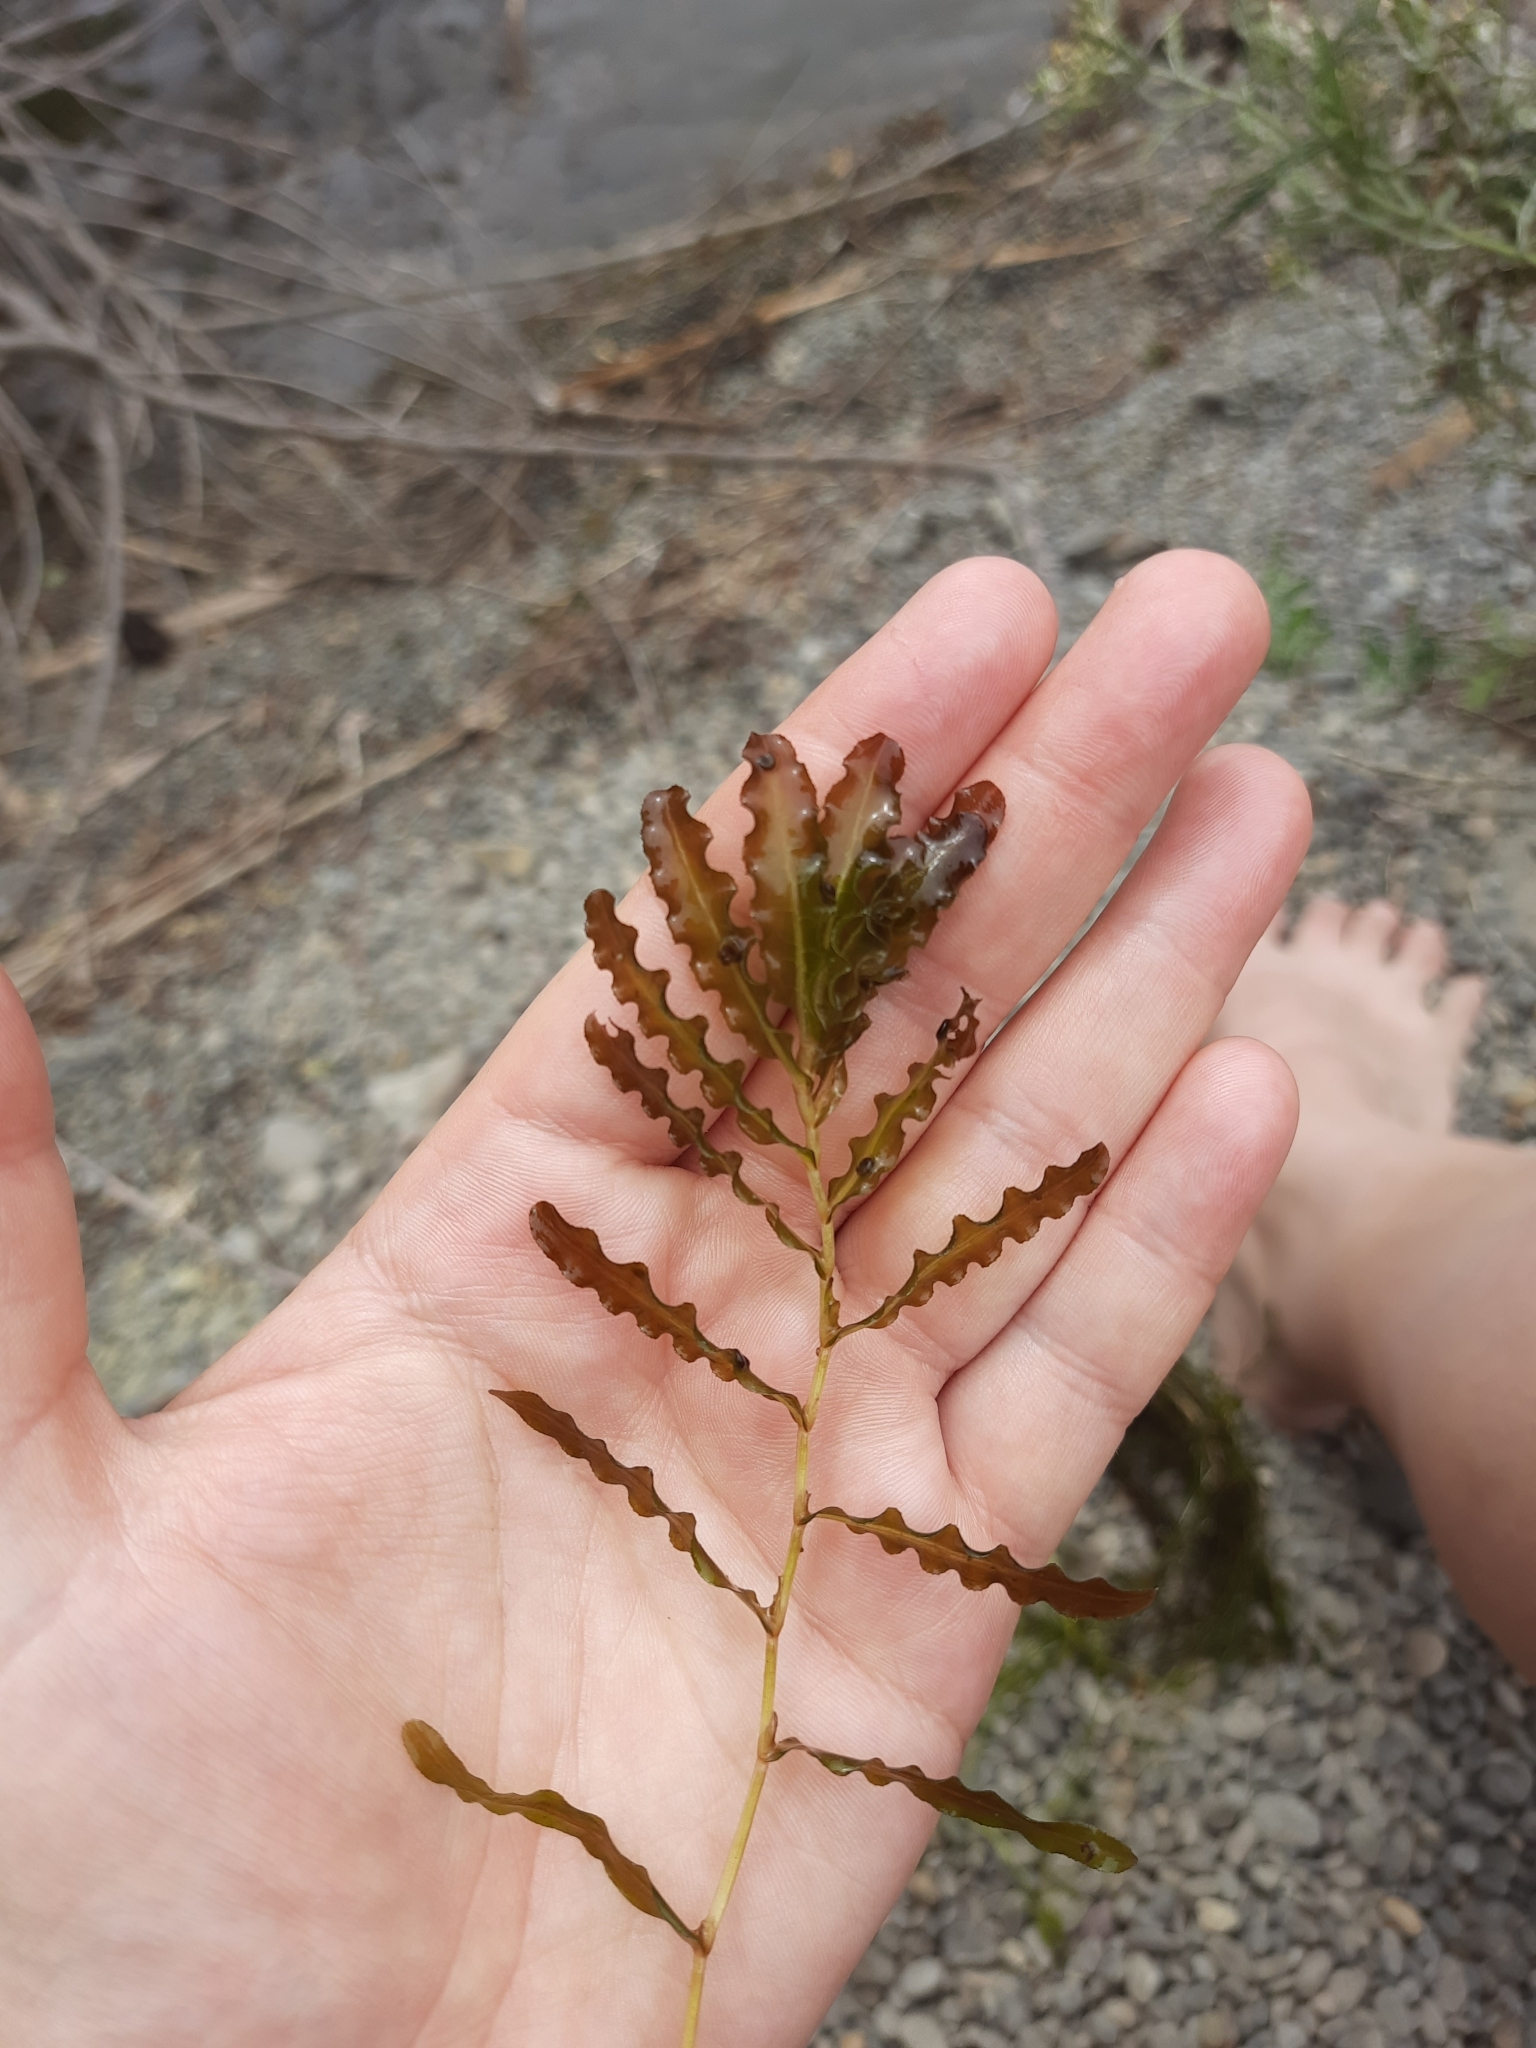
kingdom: Plantae
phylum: Tracheophyta
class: Liliopsida
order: Alismatales
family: Potamogetonaceae
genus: Potamogeton
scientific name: Potamogeton crispus
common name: Curled pondweed
